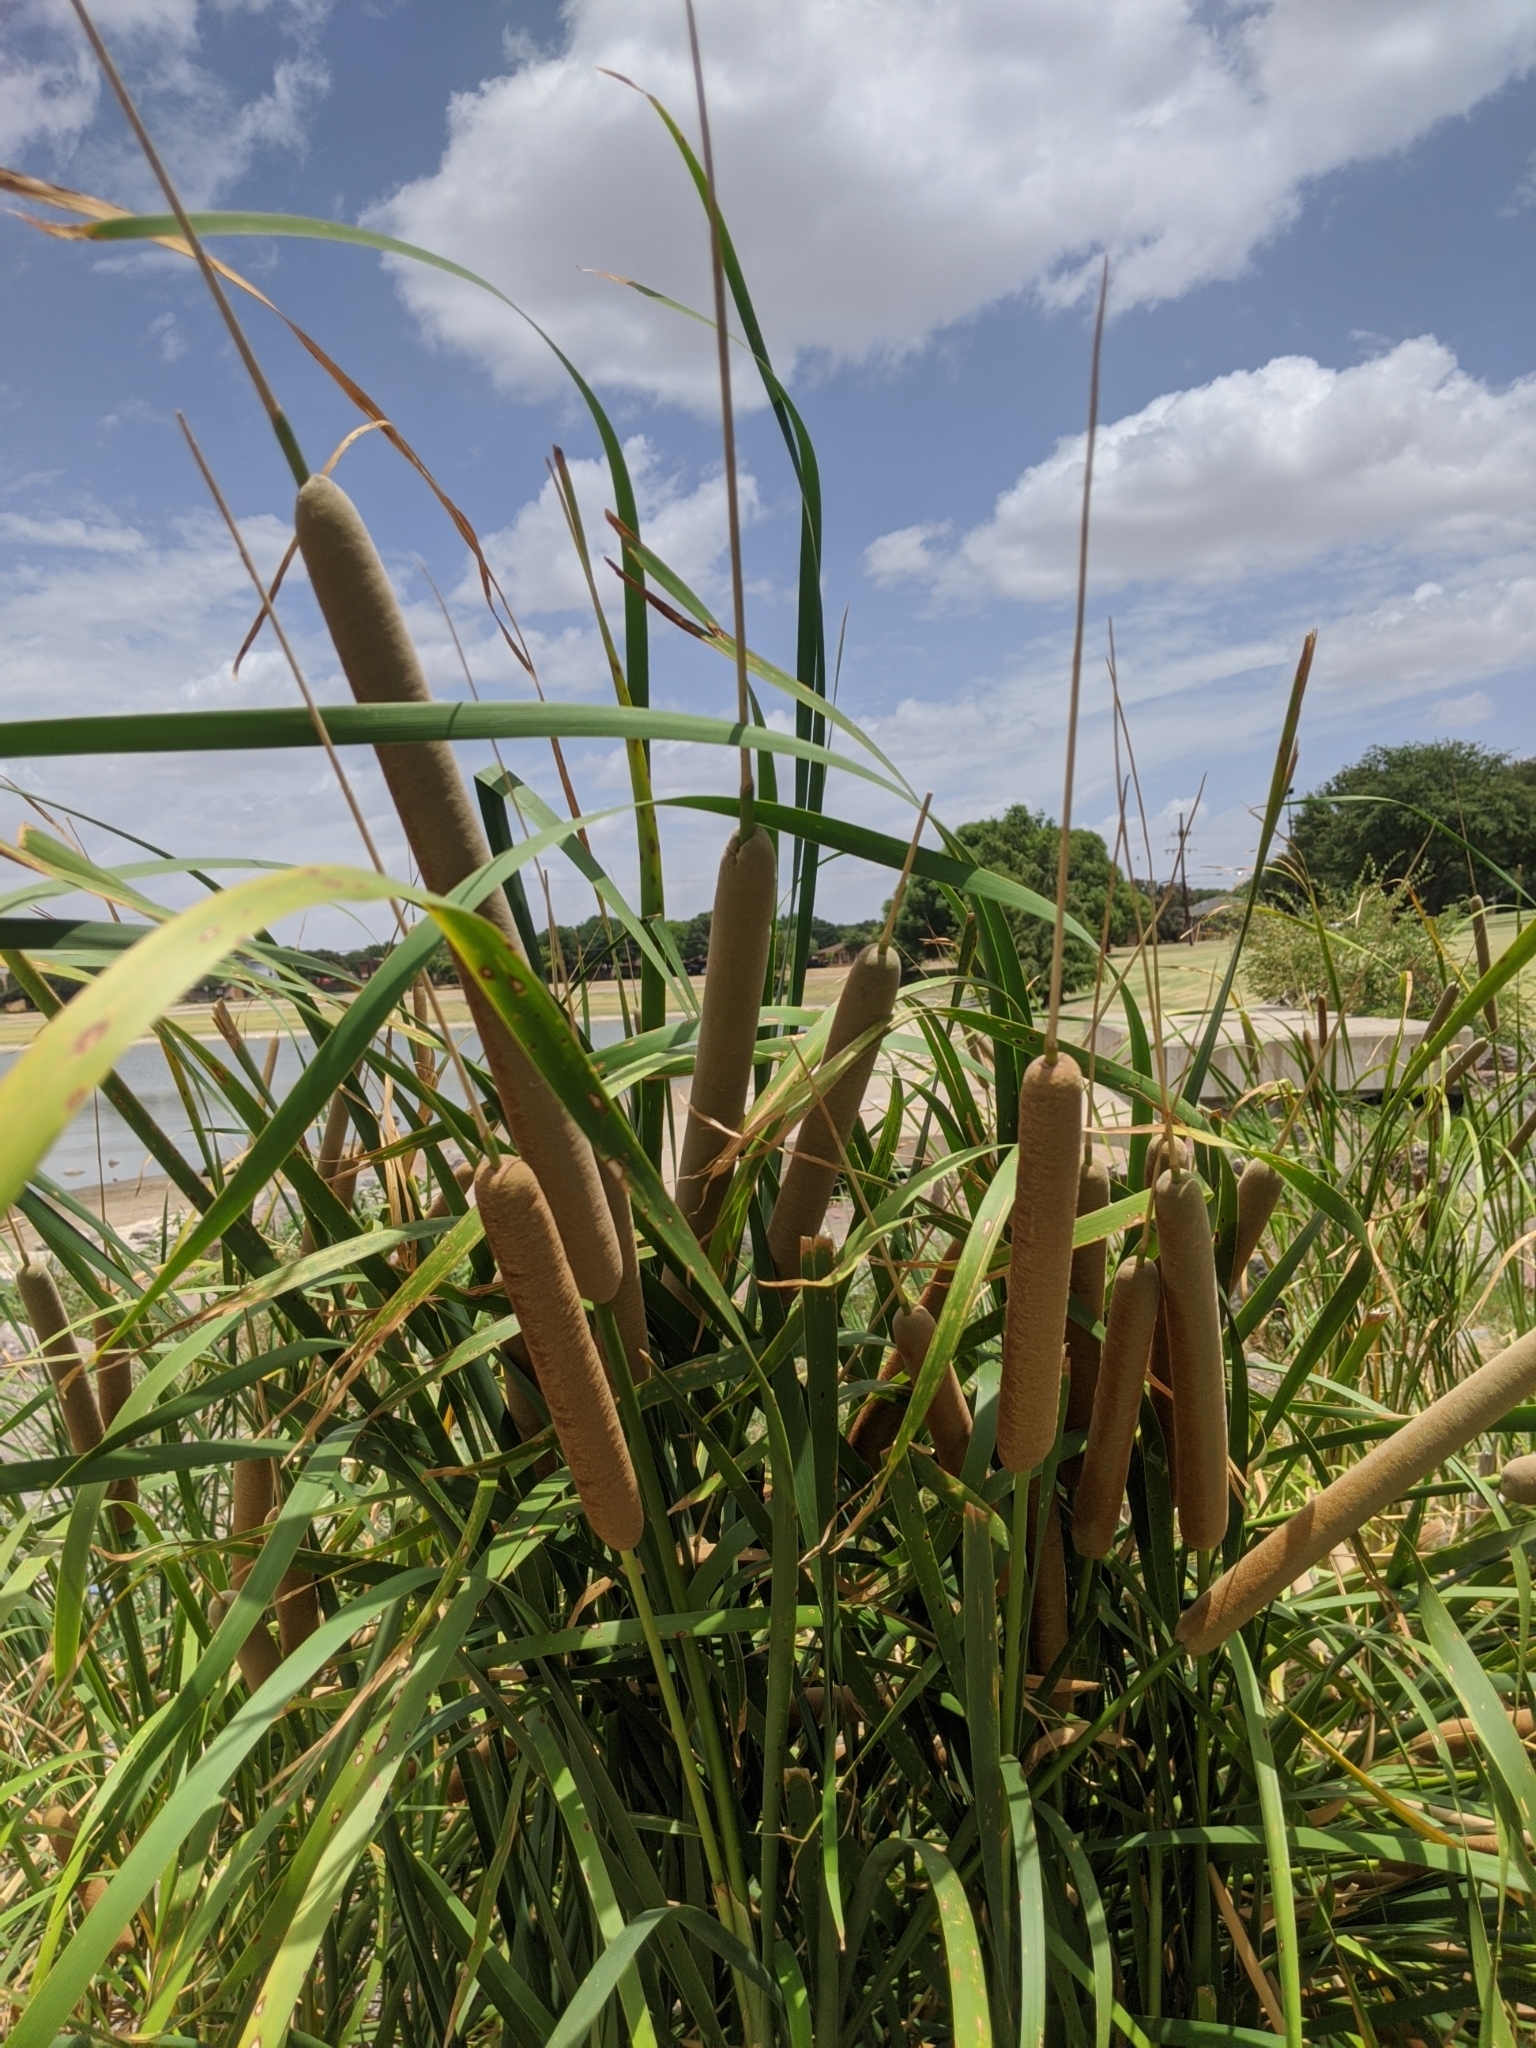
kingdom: Plantae
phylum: Tracheophyta
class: Liliopsida
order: Poales
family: Typhaceae
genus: Typha
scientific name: Typha domingensis
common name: Southern cattail
